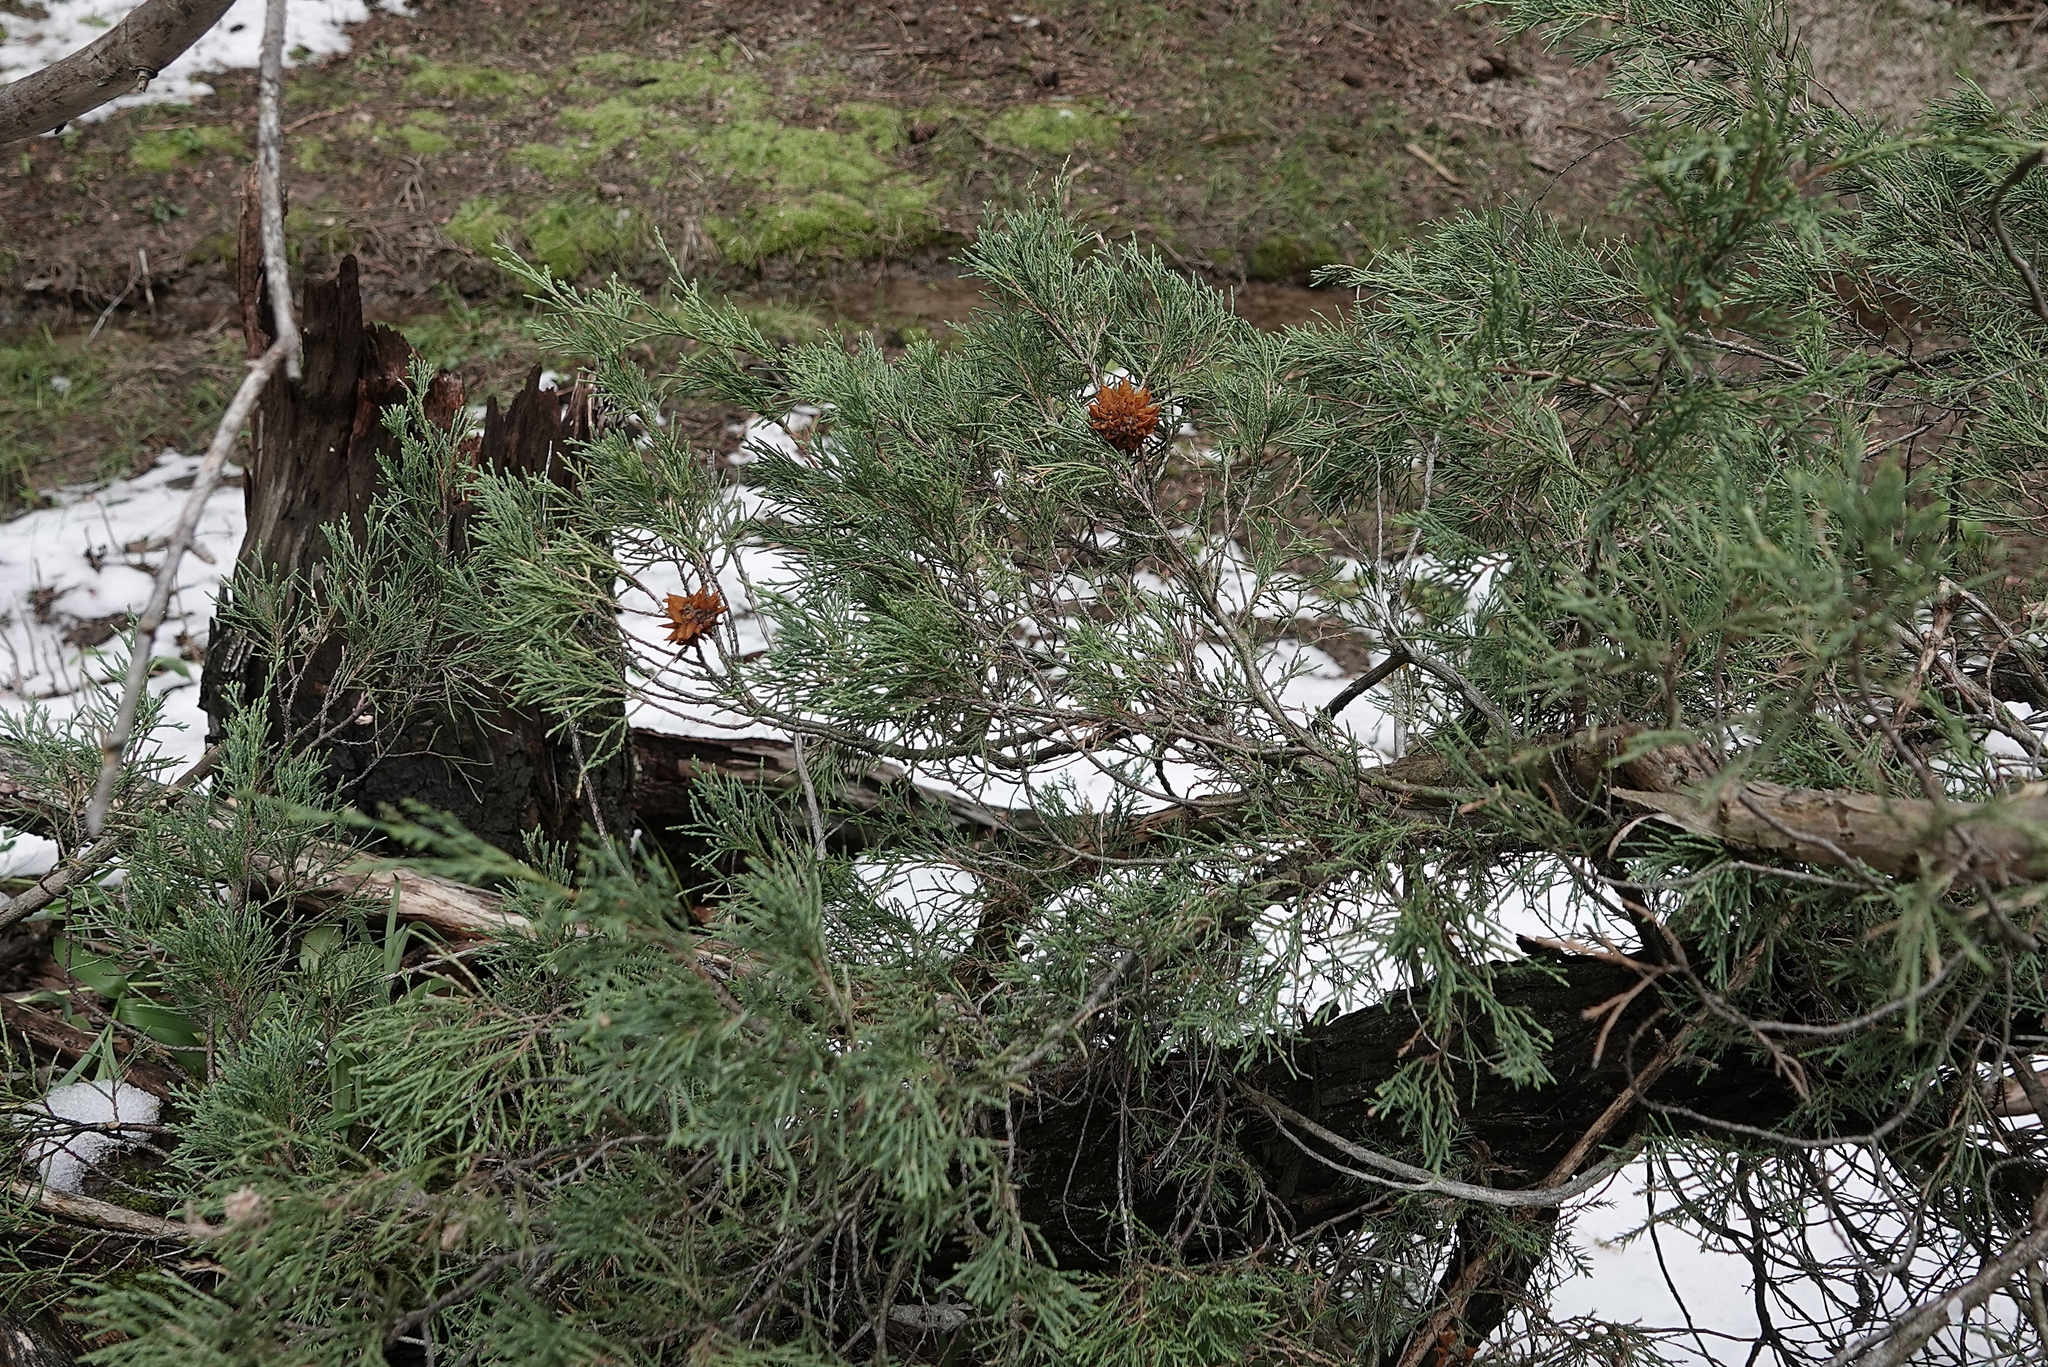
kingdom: Fungi
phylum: Basidiomycota
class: Pucciniomycetes
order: Pucciniales
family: Gymnosporangiaceae
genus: Gymnosporangium
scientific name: Gymnosporangium juniperi-virginianae
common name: Juniper-apple rust
